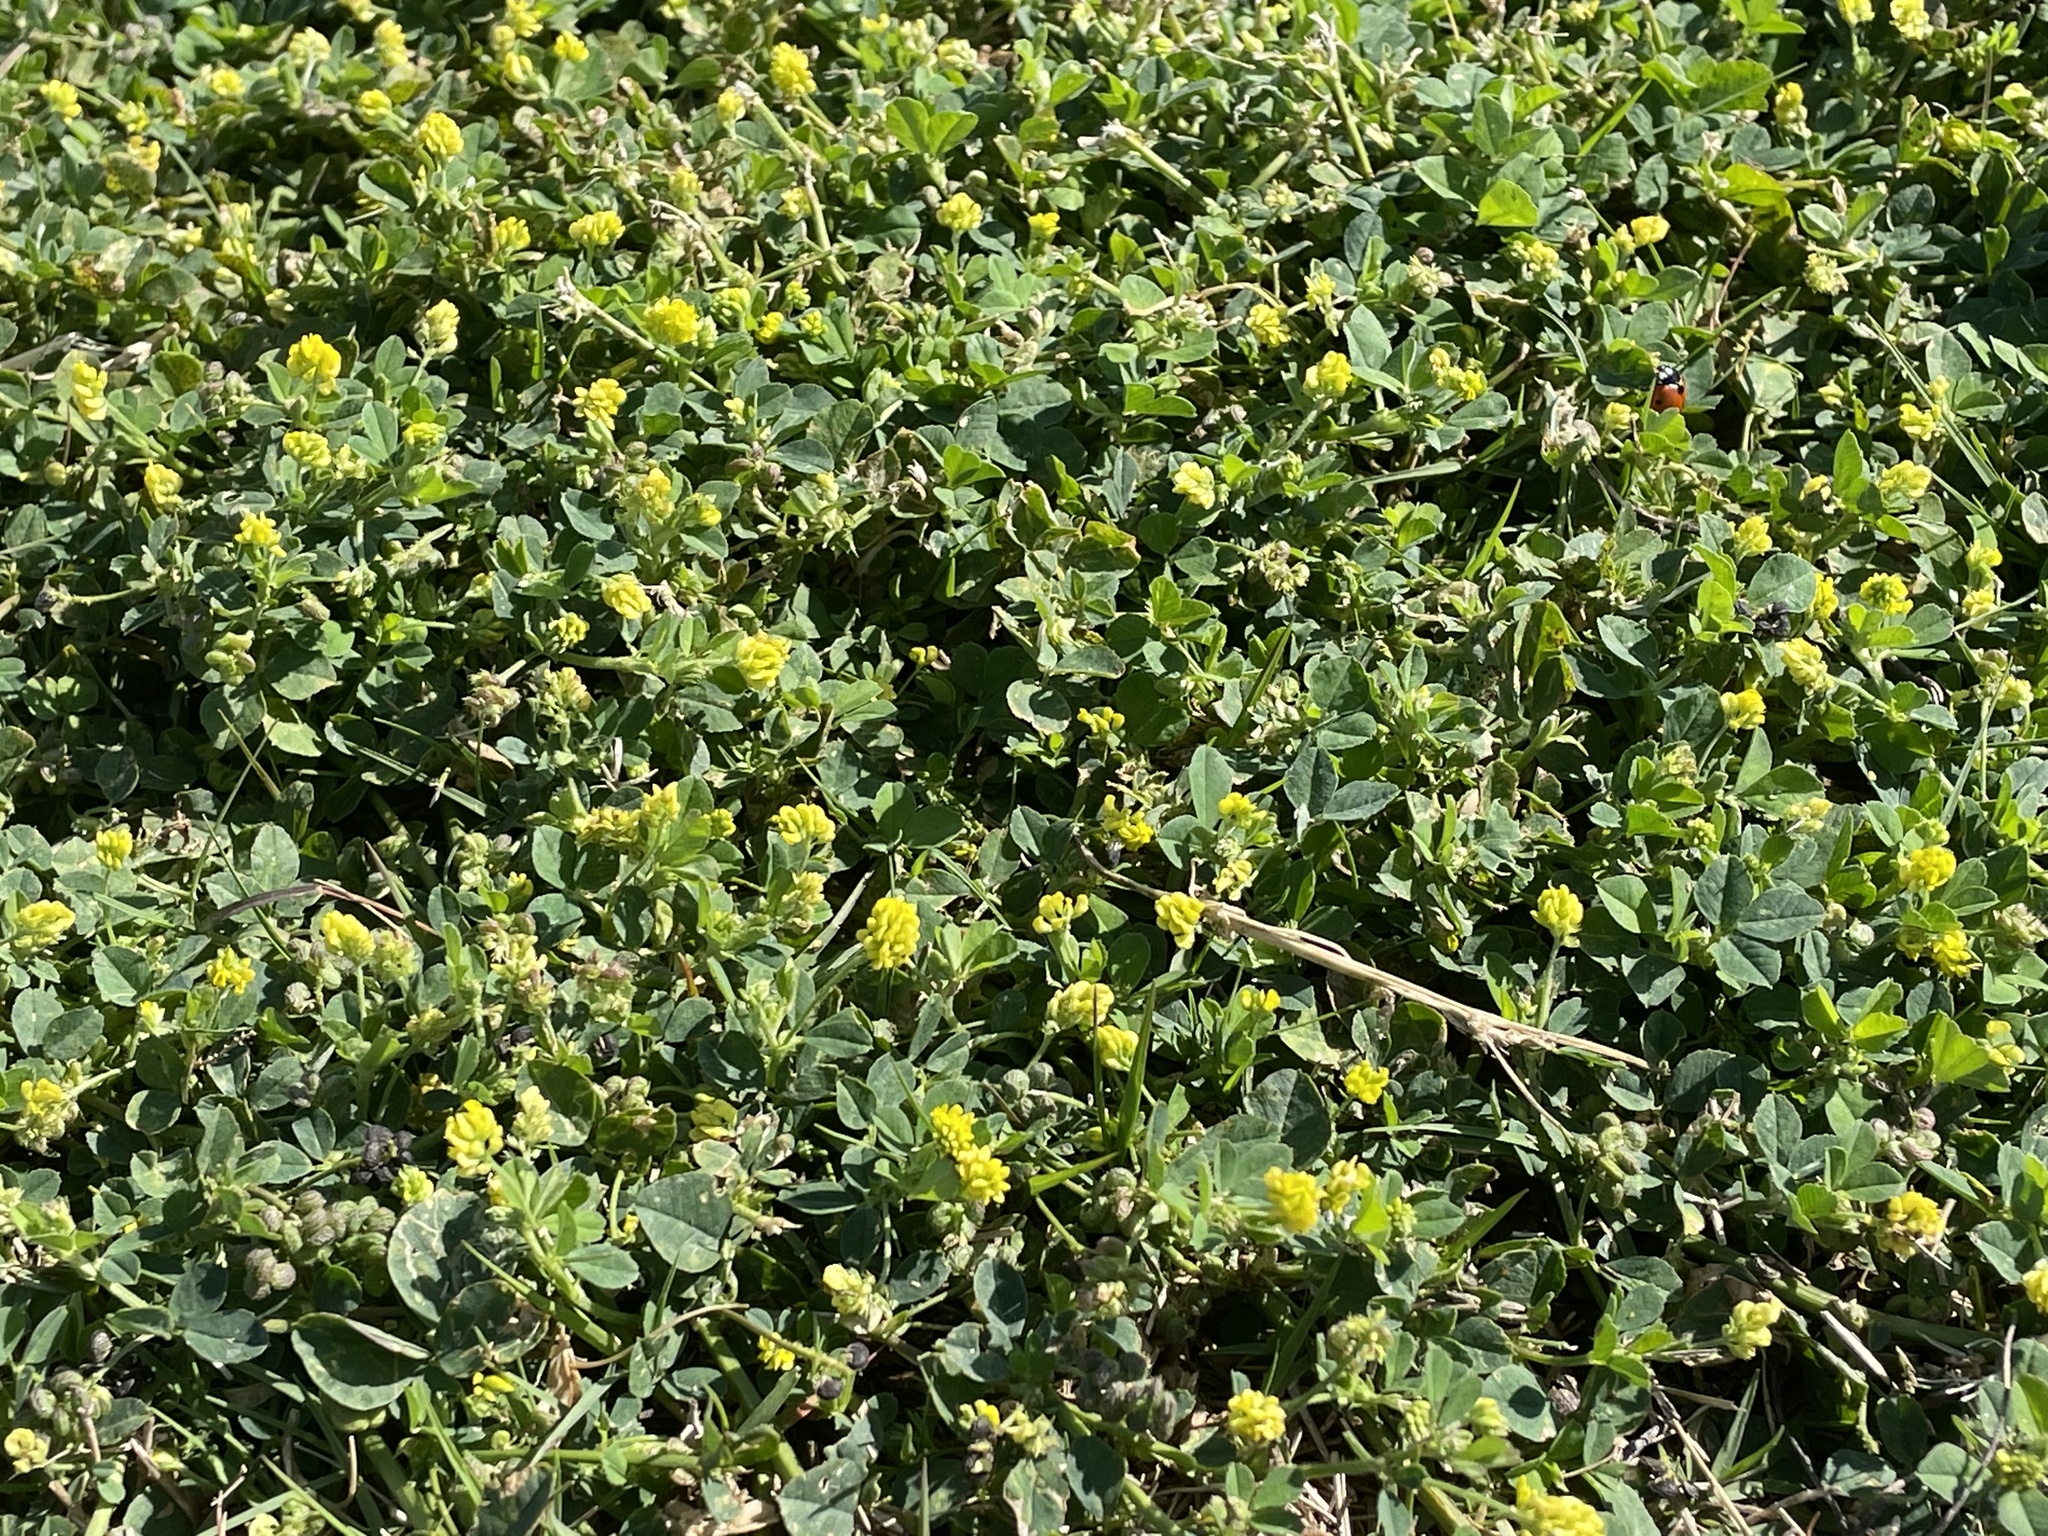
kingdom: Plantae
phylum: Tracheophyta
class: Magnoliopsida
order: Fabales
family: Fabaceae
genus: Medicago
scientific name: Medicago lupulina
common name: Black medick
